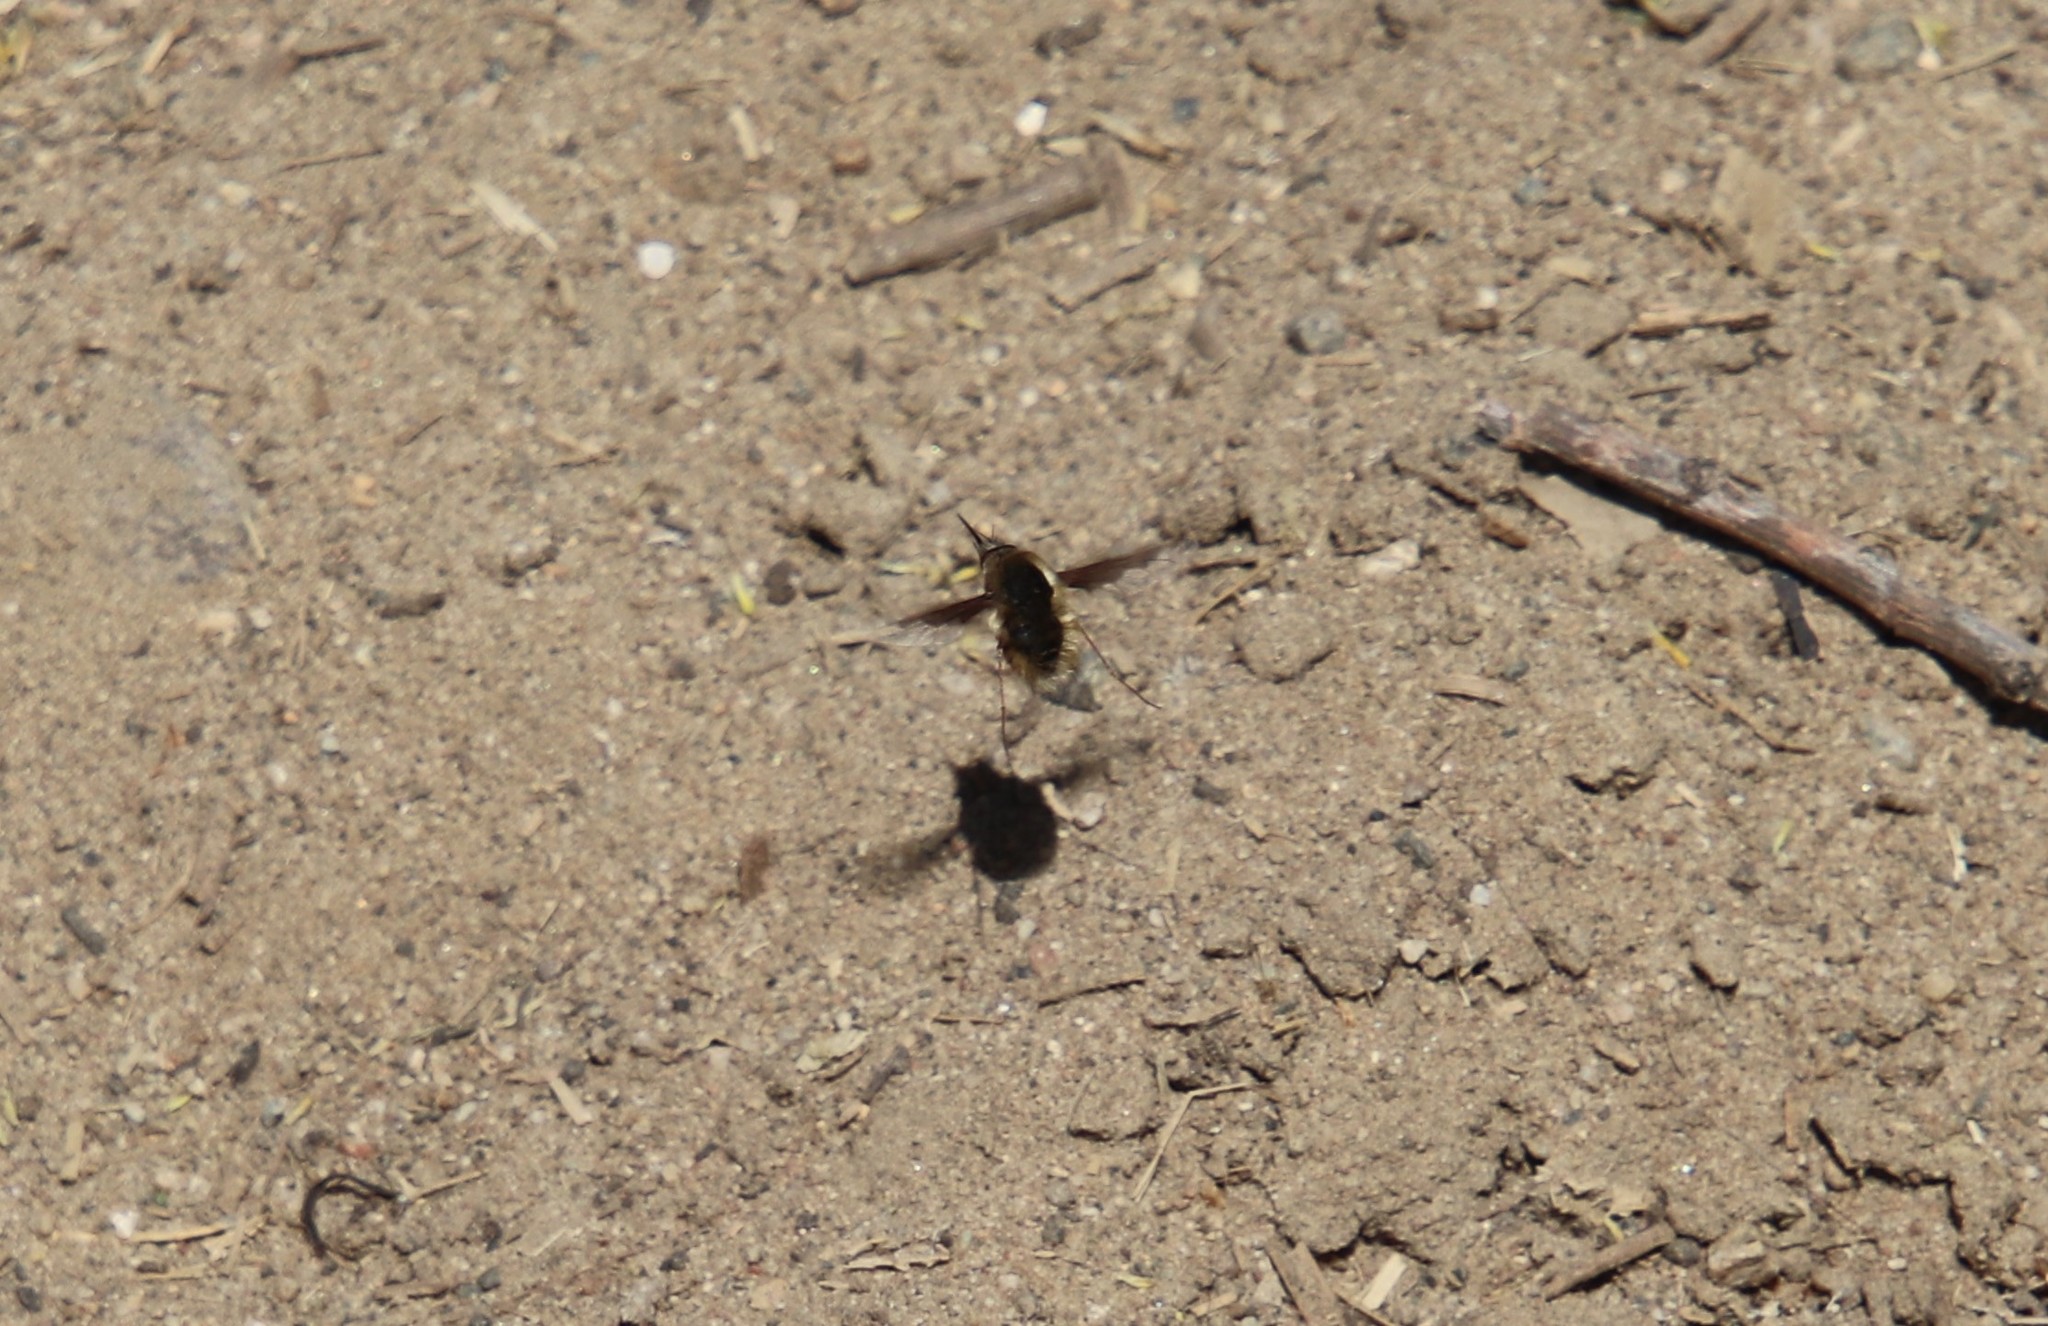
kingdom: Animalia
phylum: Arthropoda
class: Insecta
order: Diptera
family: Bombyliidae
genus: Bombylius
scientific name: Bombylius major
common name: Bee fly
